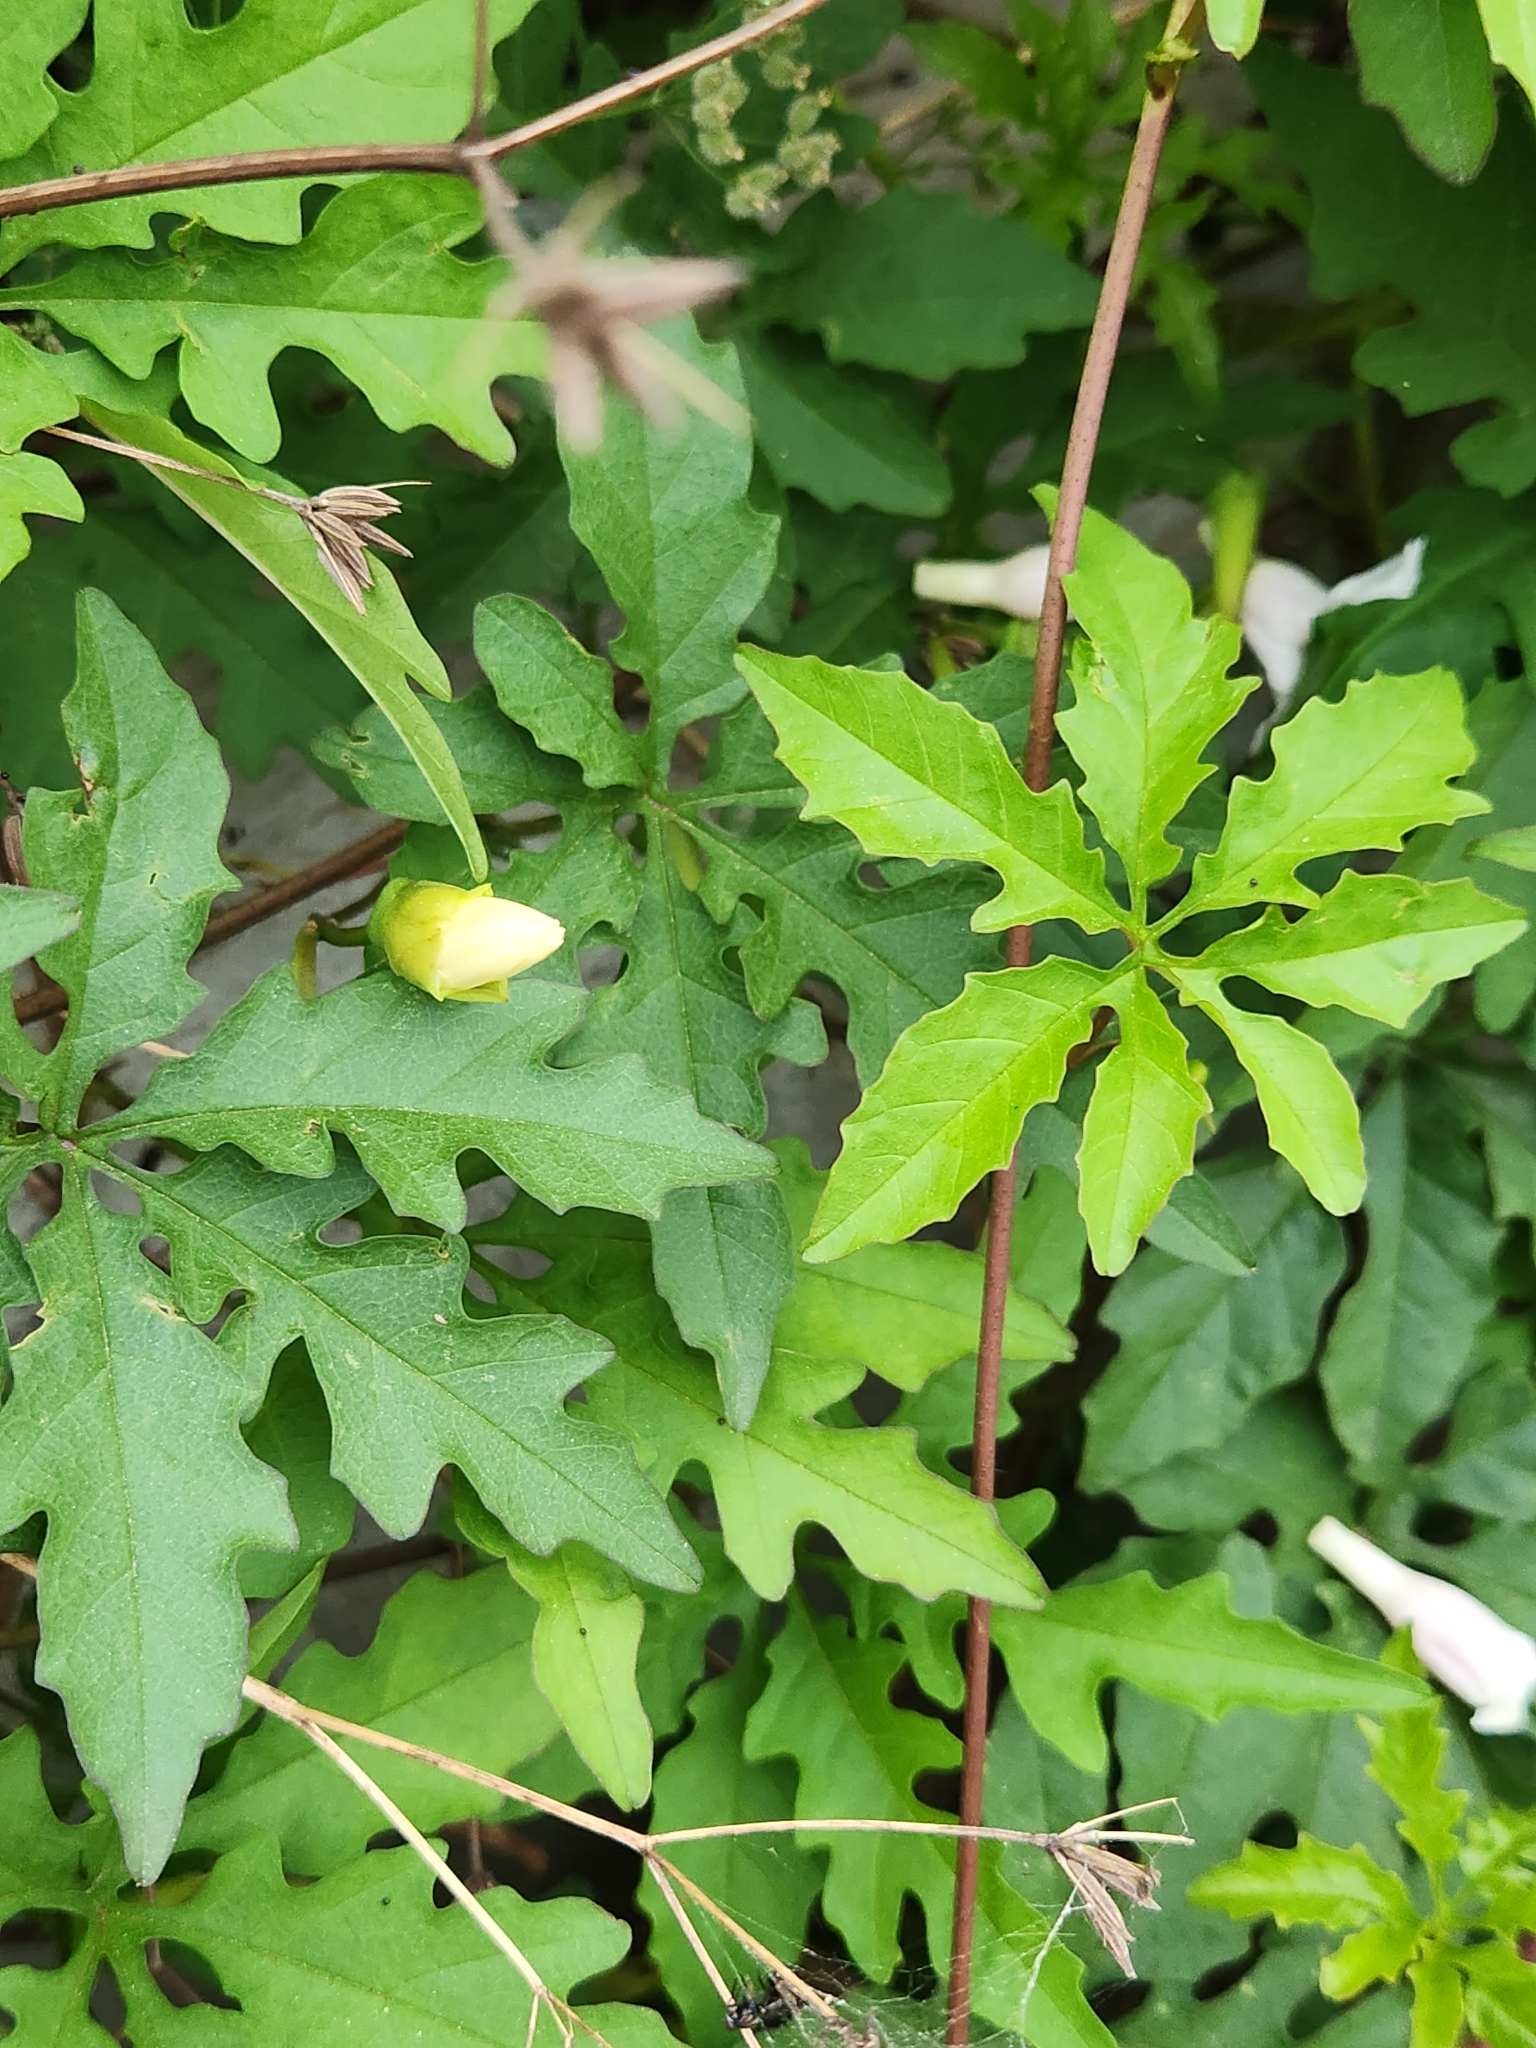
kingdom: Plantae
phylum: Tracheophyta
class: Magnoliopsida
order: Solanales
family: Convolvulaceae
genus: Distimake
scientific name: Distimake dissectus
